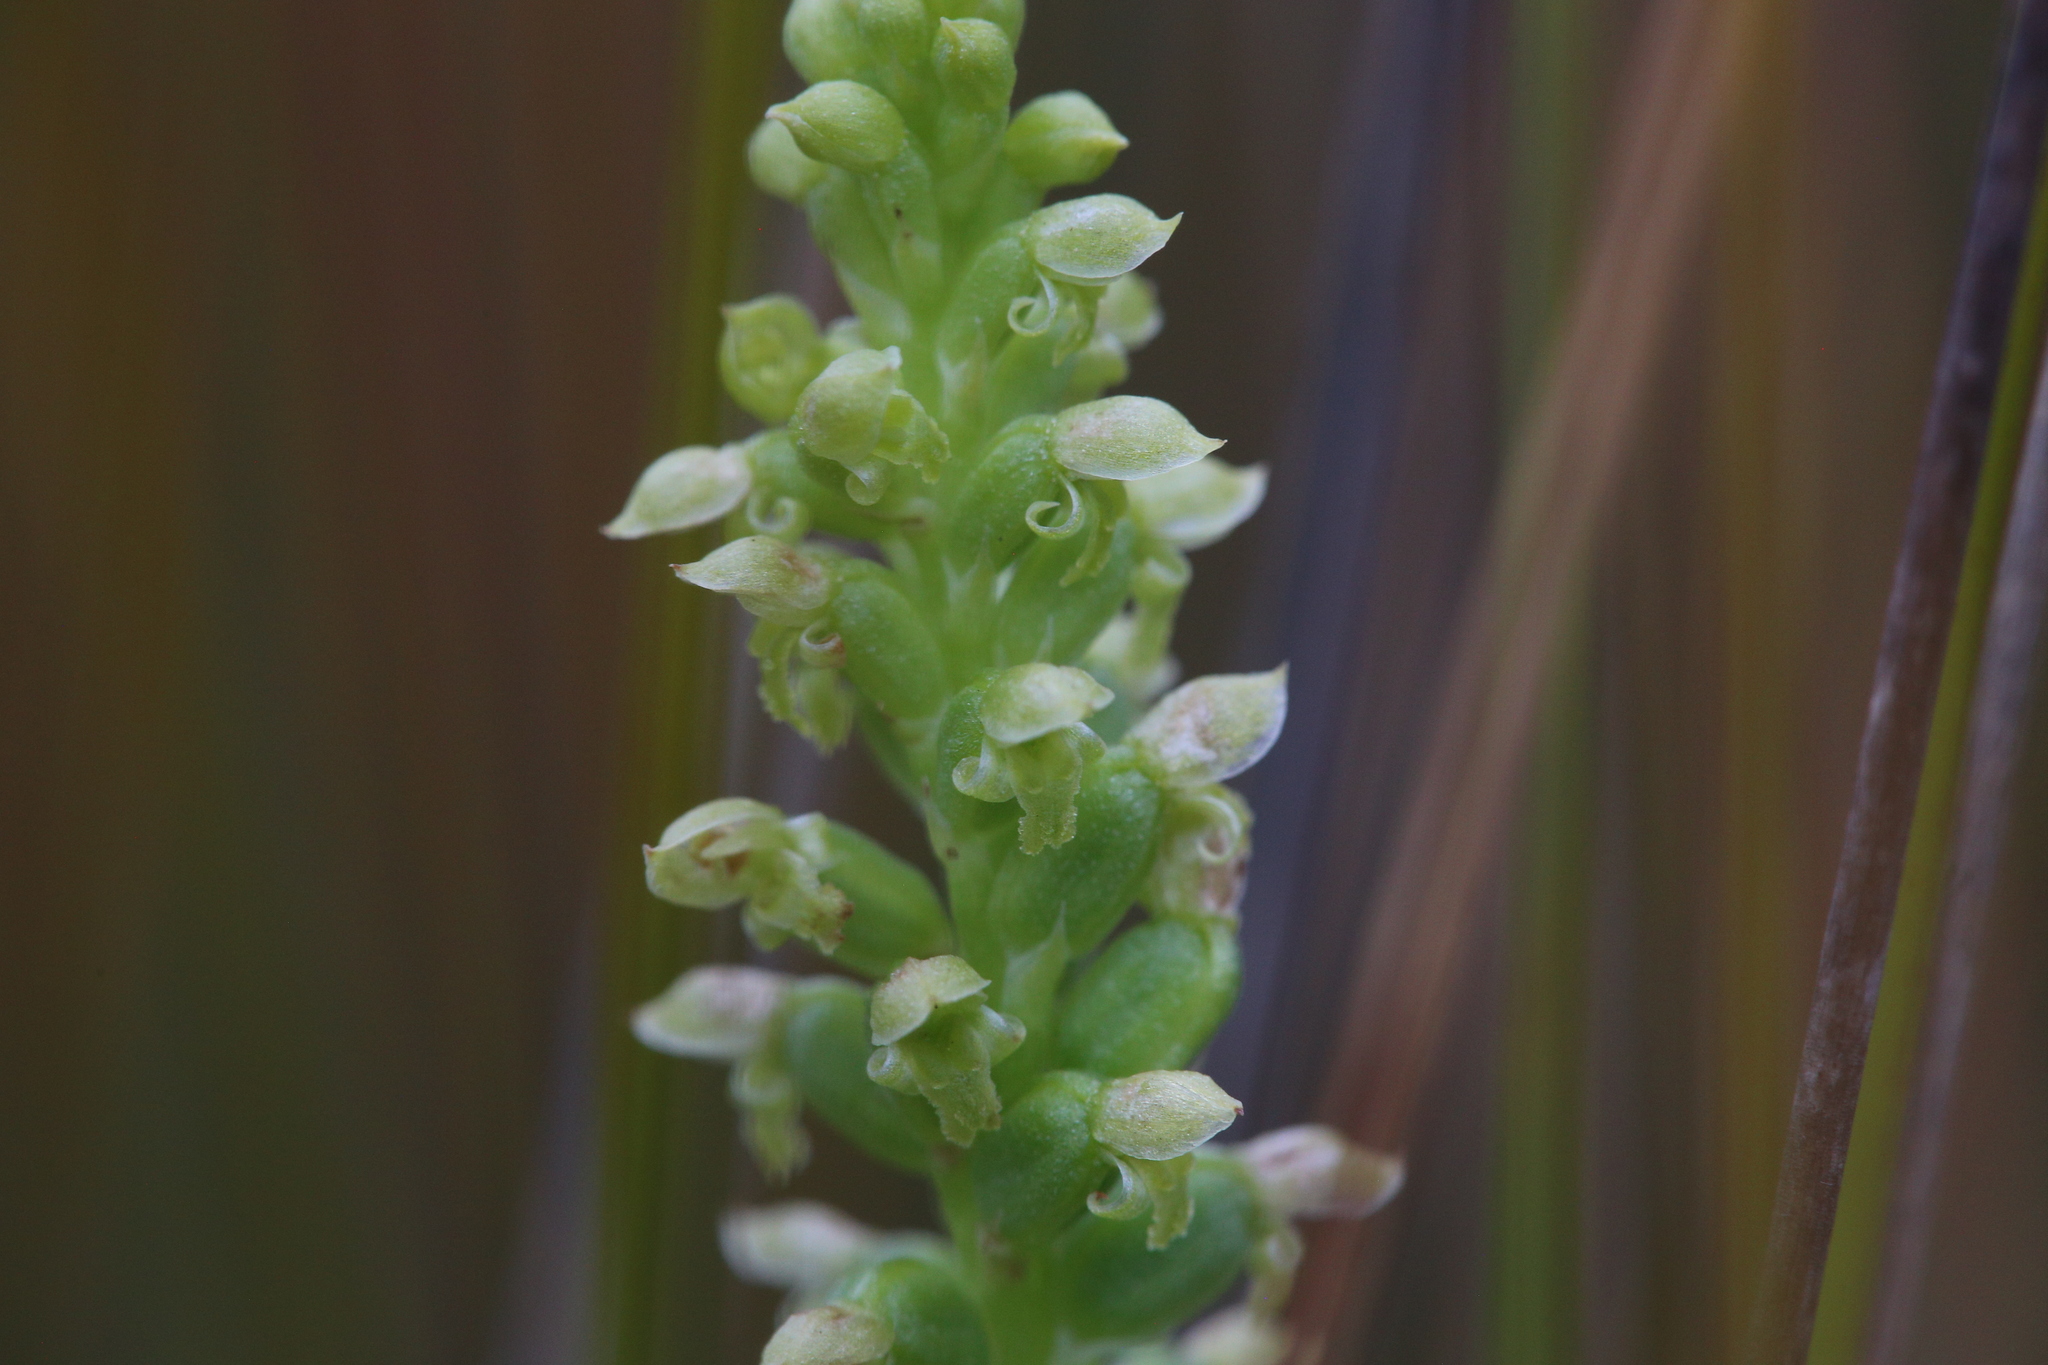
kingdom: Plantae
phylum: Tracheophyta
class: Liliopsida
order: Asparagales
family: Orchidaceae
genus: Microtis
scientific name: Microtis media
